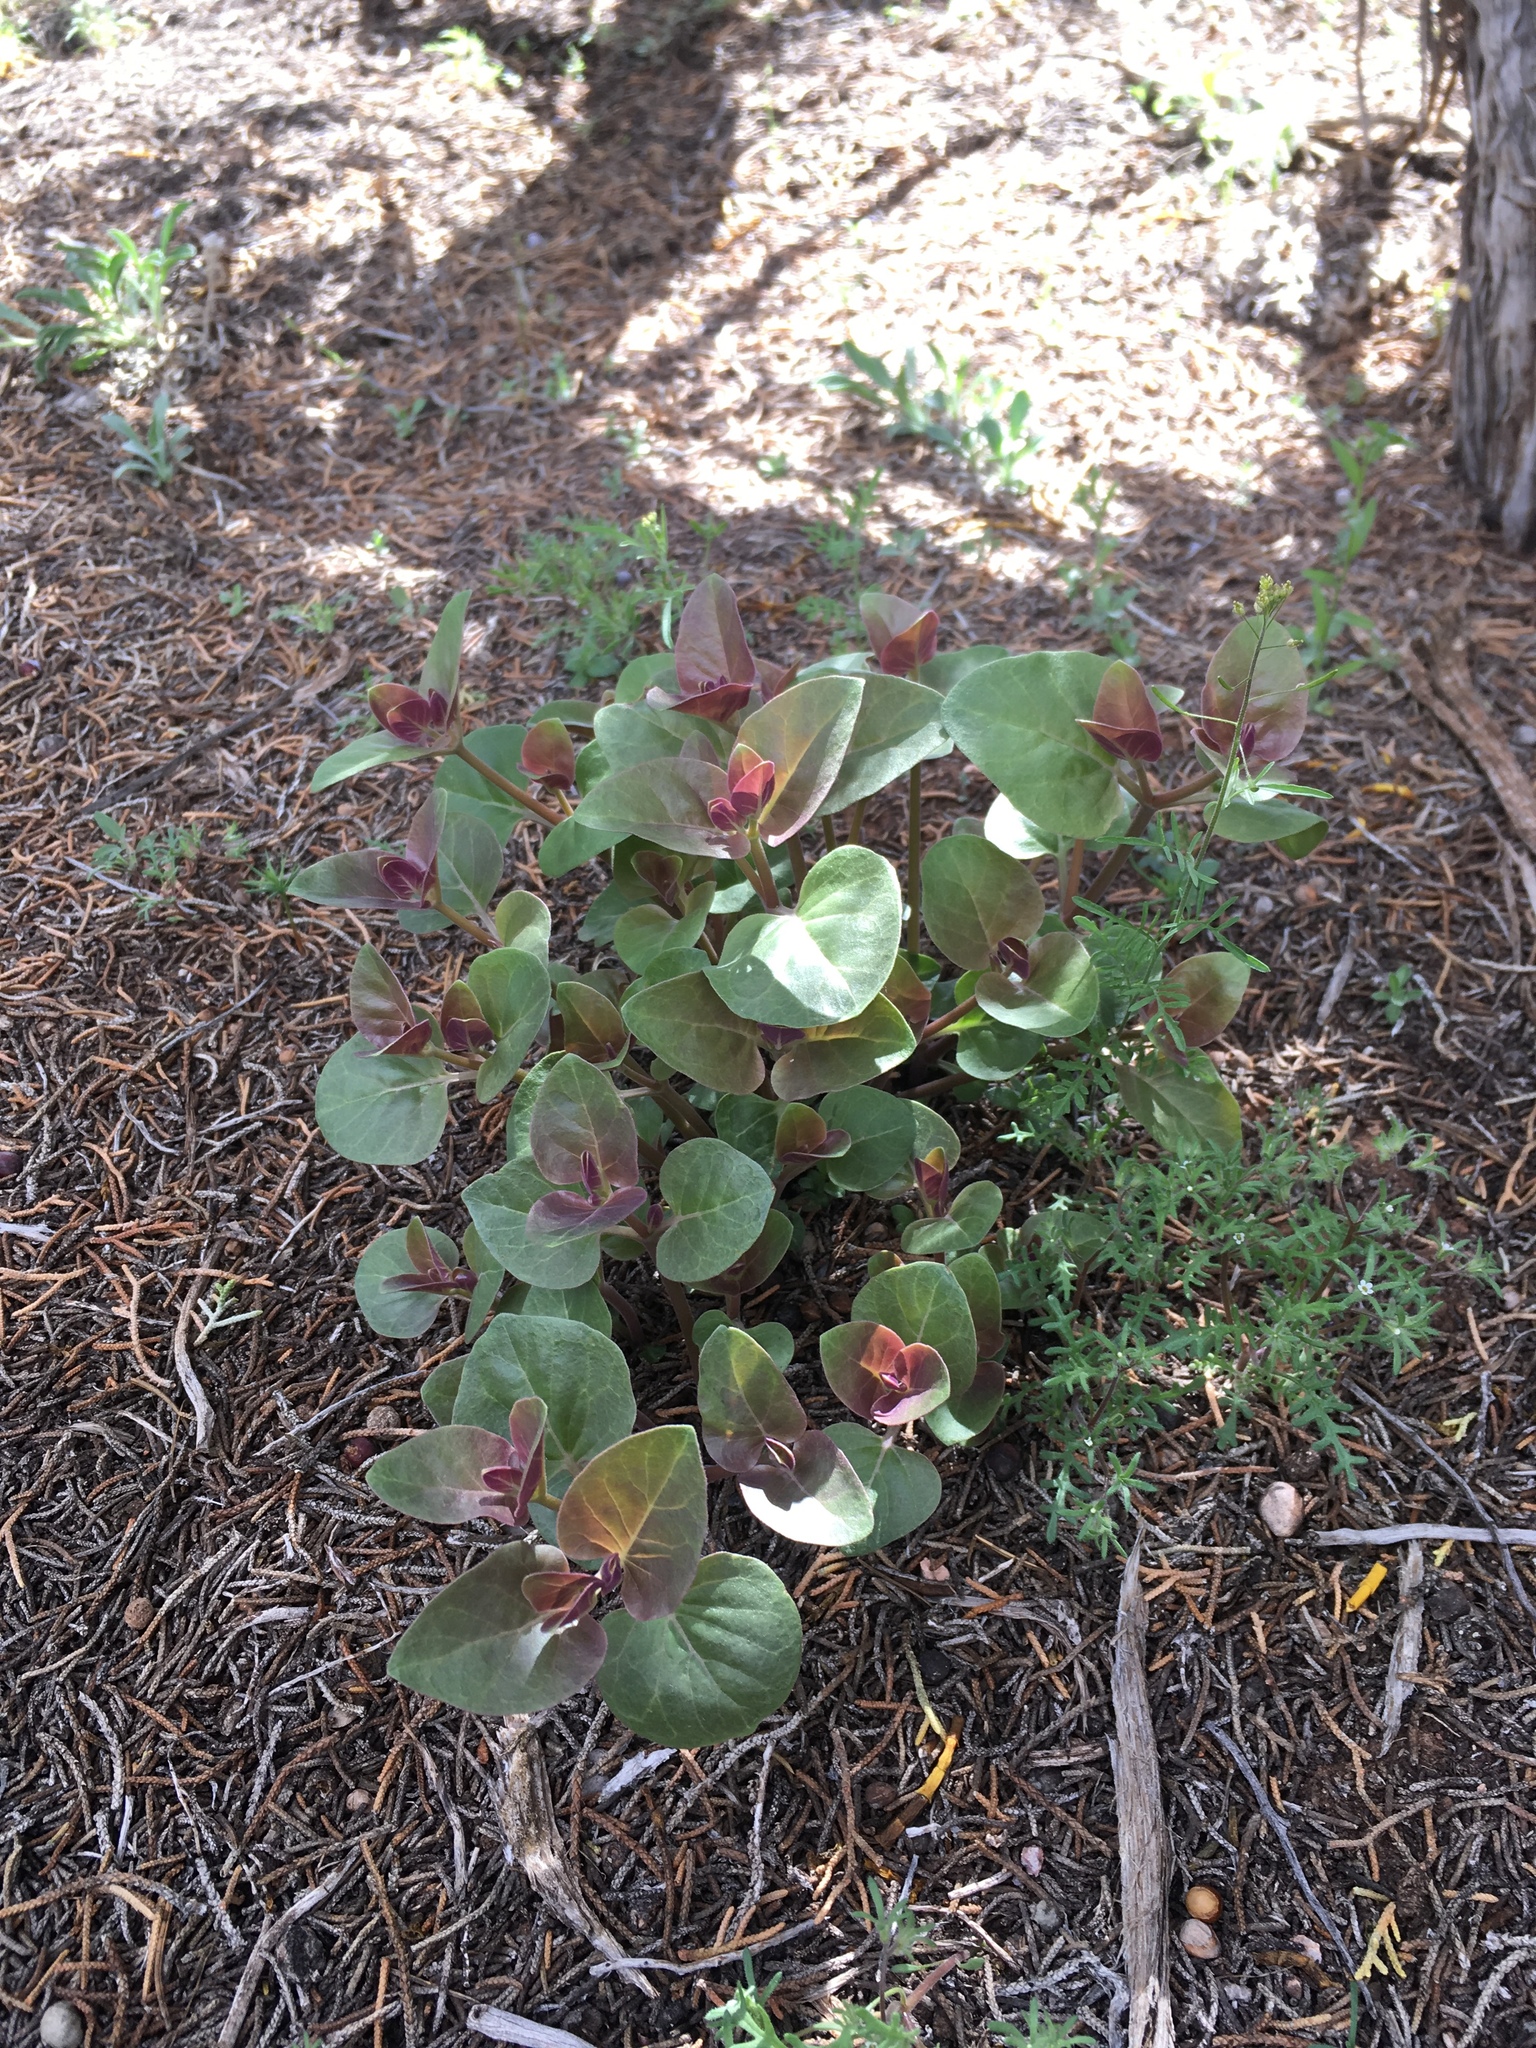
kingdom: Plantae
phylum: Tracheophyta
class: Magnoliopsida
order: Caryophyllales
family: Nyctaginaceae
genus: Mirabilis
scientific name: Mirabilis multiflora
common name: Froebel's four-o'clock
